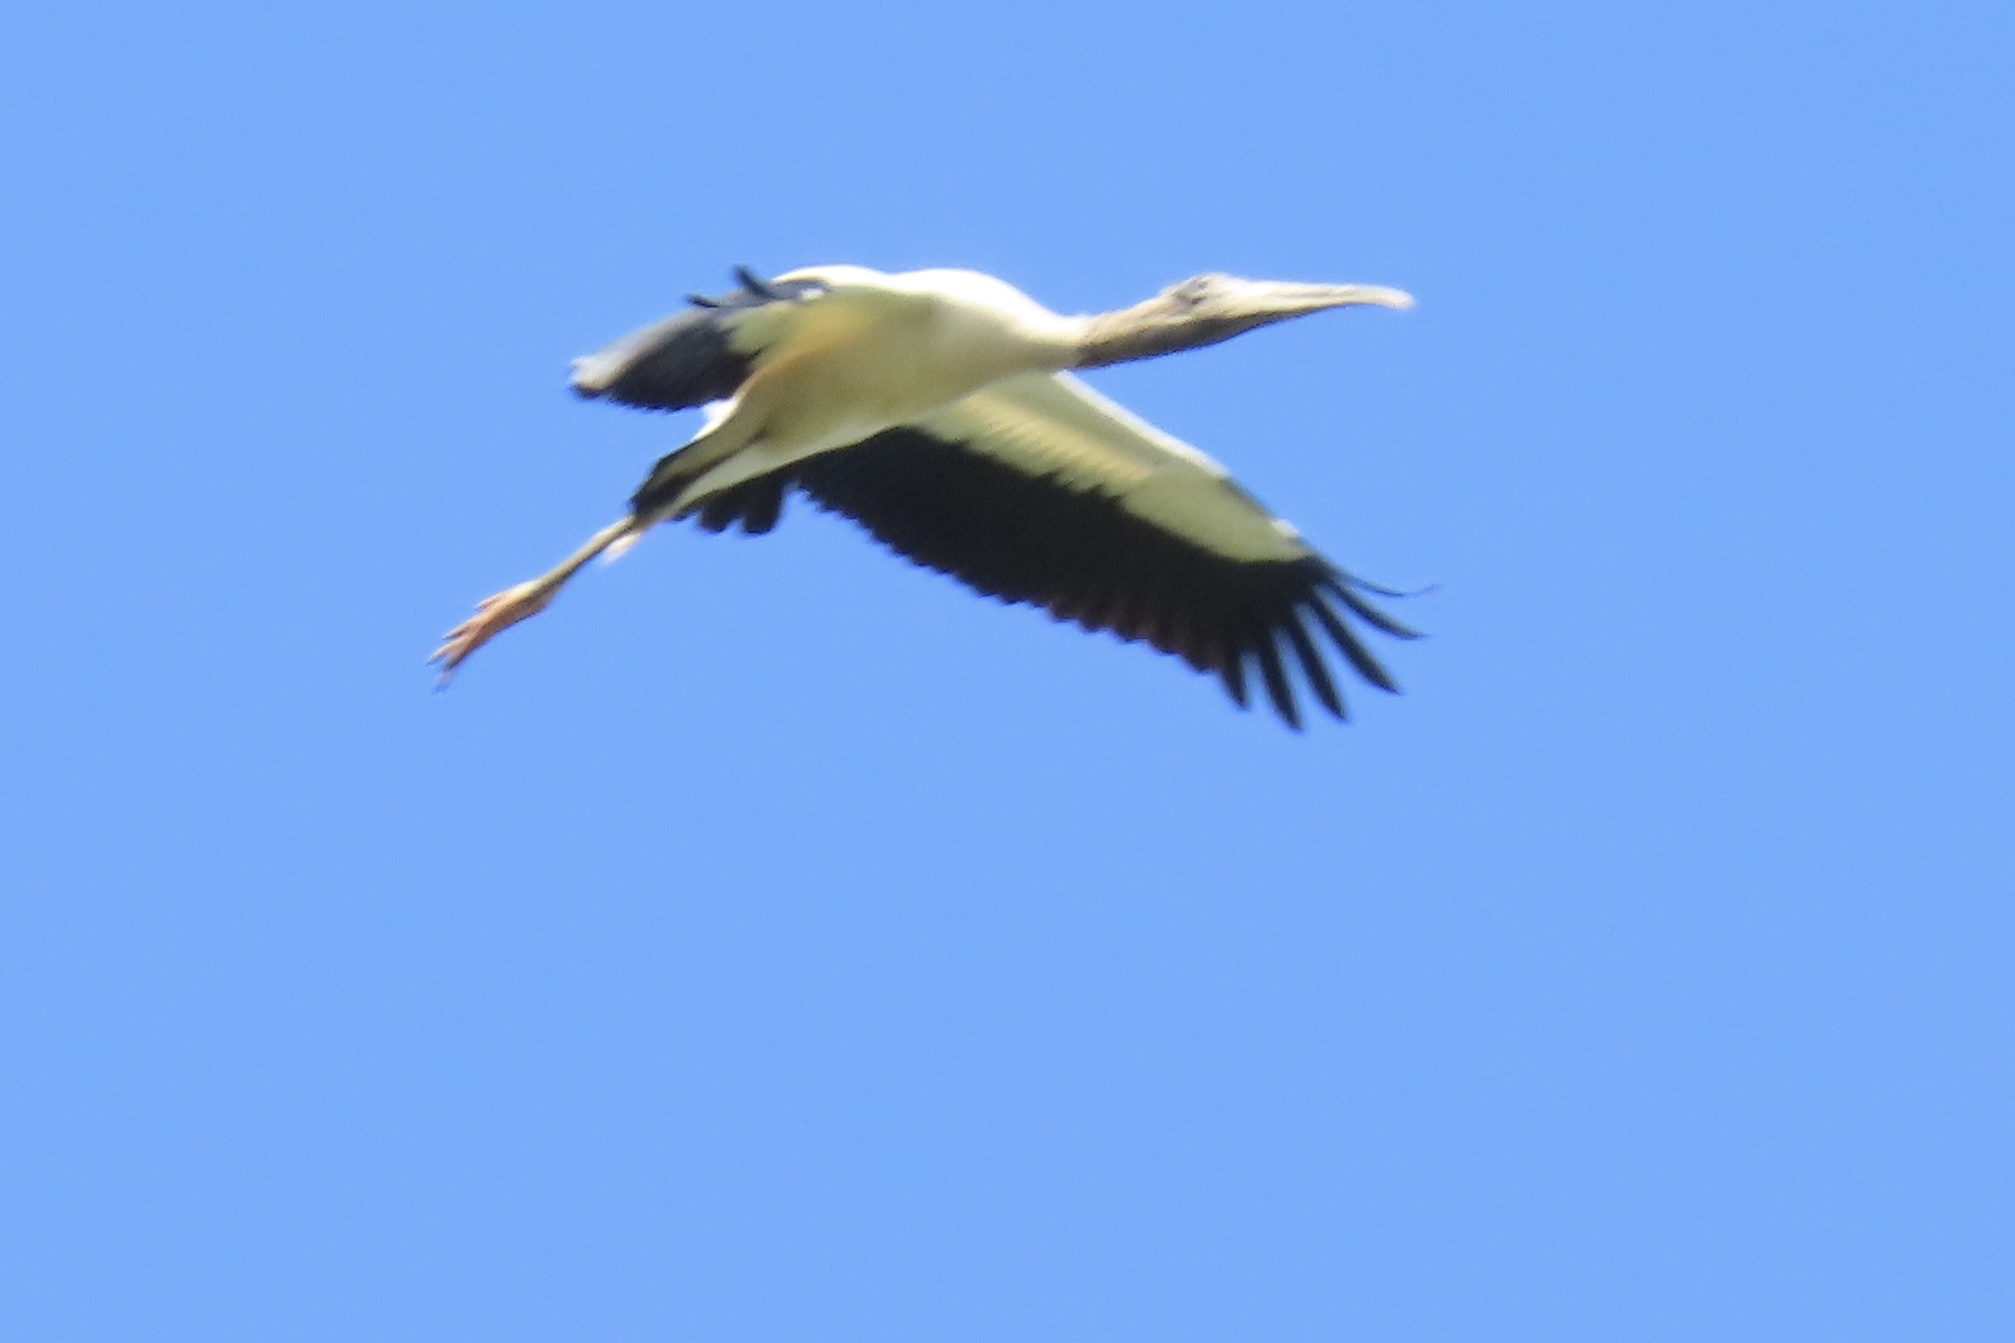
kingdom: Animalia
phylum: Chordata
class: Aves
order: Ciconiiformes
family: Ciconiidae
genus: Mycteria
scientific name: Mycteria americana
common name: Wood stork
